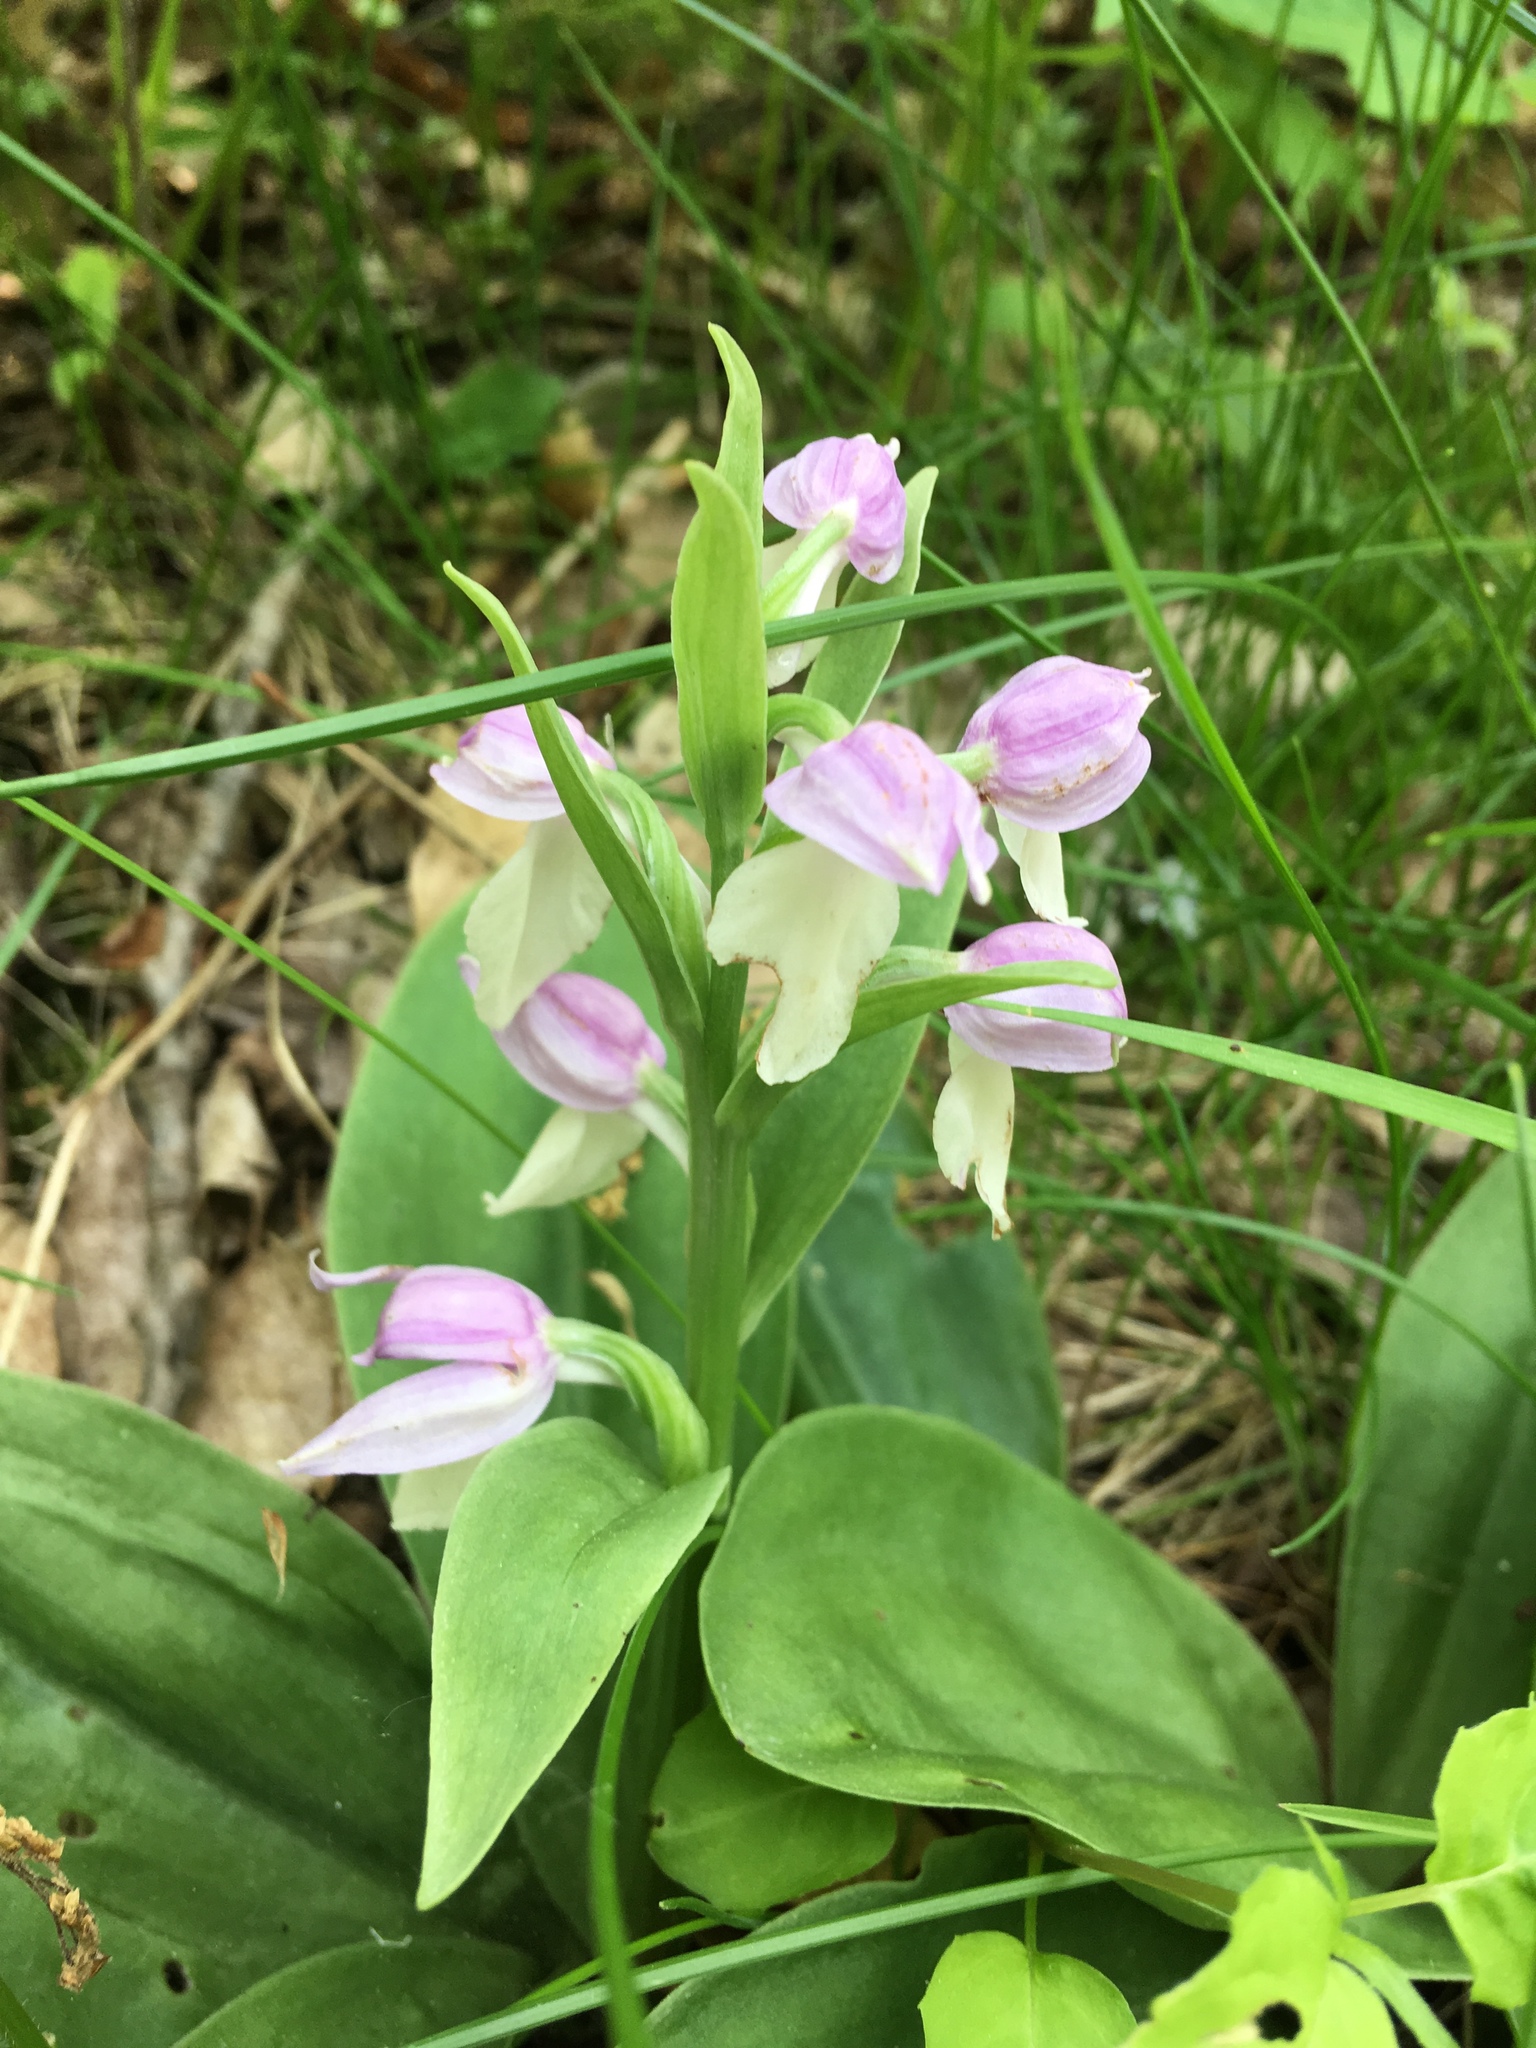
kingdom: Plantae
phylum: Tracheophyta
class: Liliopsida
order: Asparagales
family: Orchidaceae
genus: Galearis
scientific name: Galearis spectabilis
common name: Purple-hooded orchis
